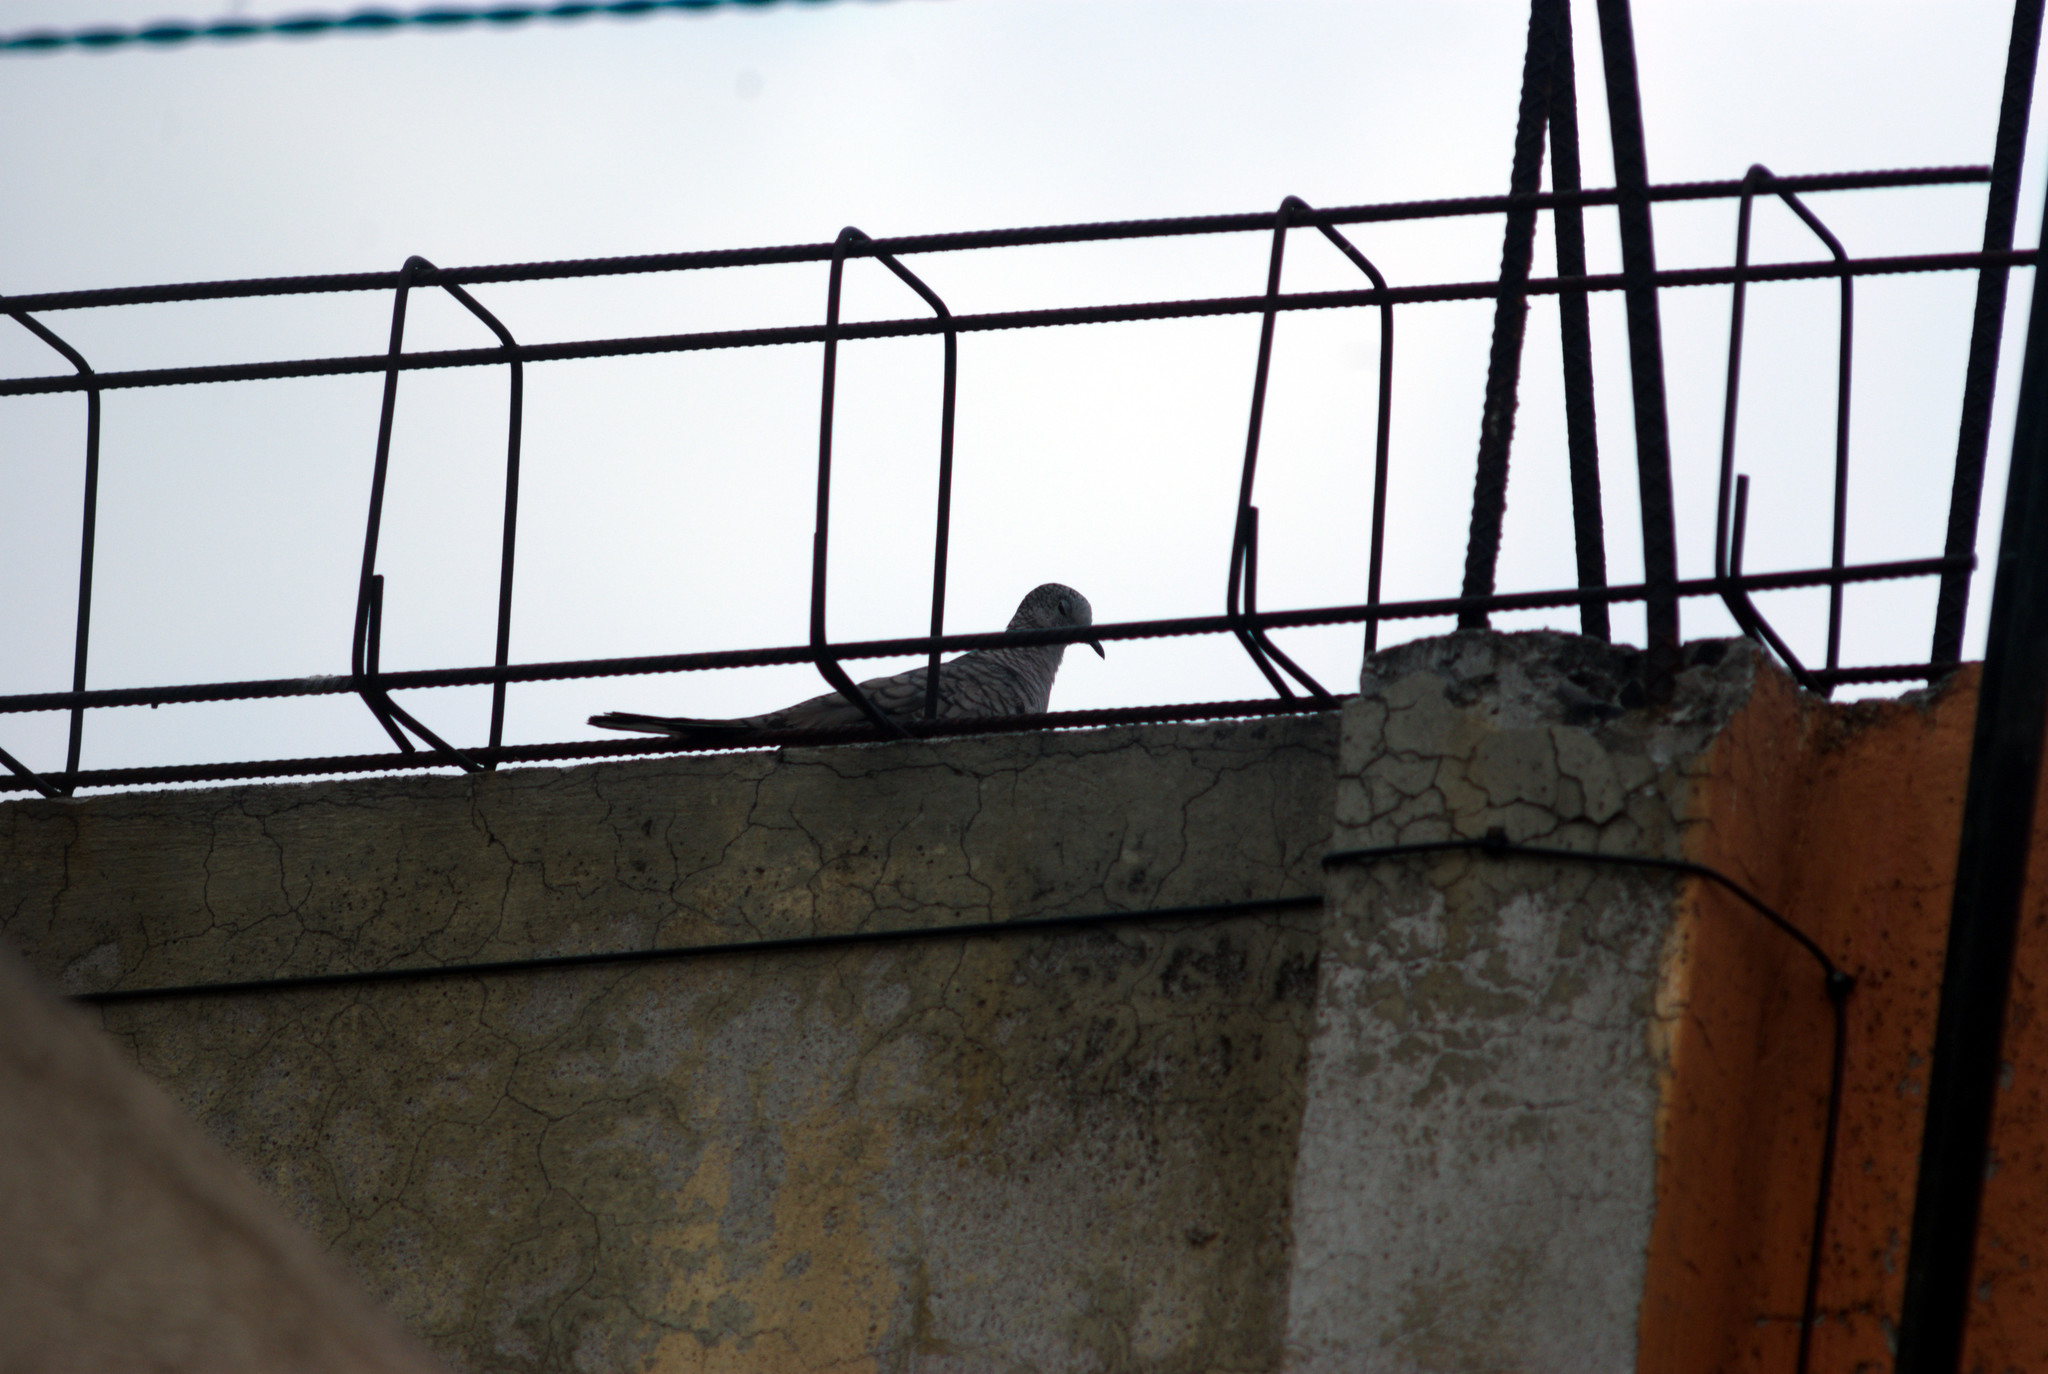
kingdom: Animalia
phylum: Chordata
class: Aves
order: Columbiformes
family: Columbidae
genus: Columbina
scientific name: Columbina inca
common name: Inca dove
